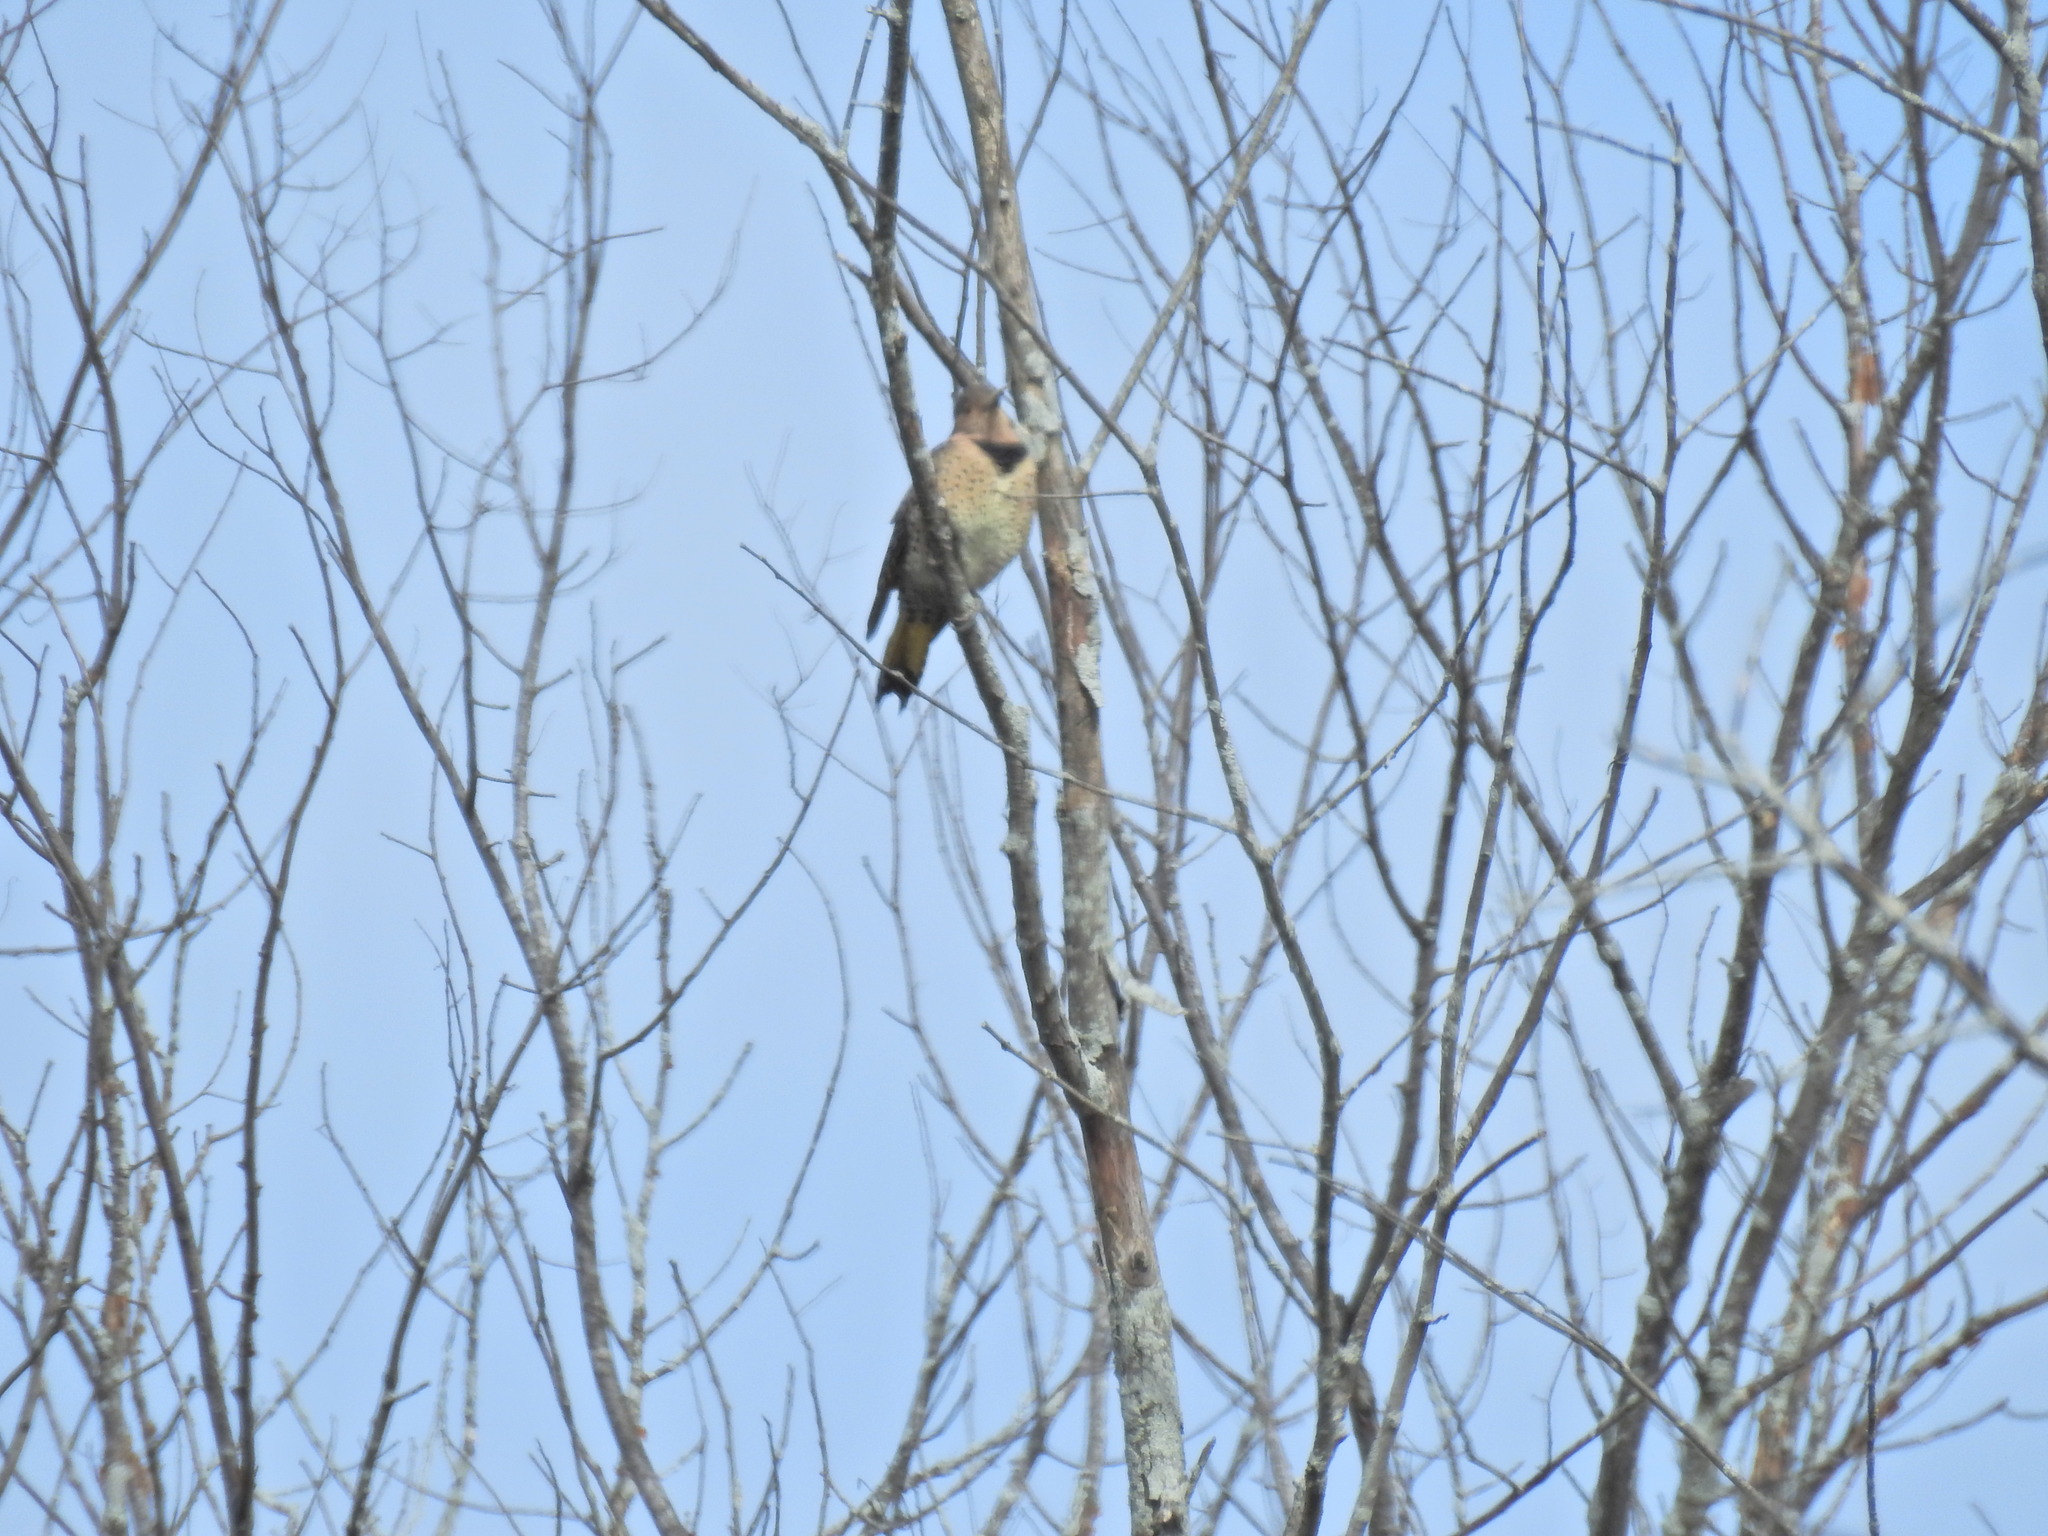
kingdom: Animalia
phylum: Chordata
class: Aves
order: Piciformes
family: Picidae
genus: Colaptes
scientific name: Colaptes auratus
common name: Northern flicker
